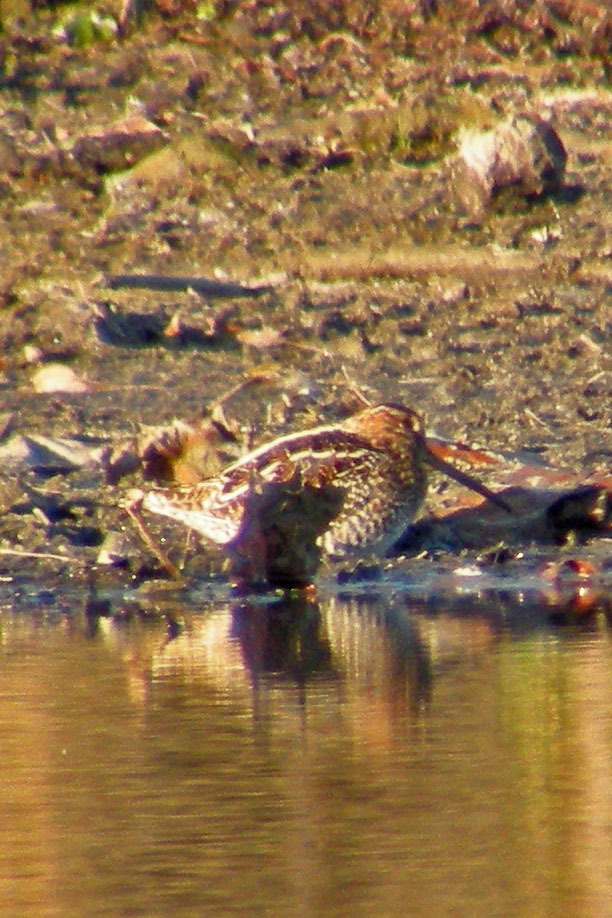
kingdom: Animalia
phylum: Chordata
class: Aves
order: Charadriiformes
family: Scolopacidae
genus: Gallinago
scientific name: Gallinago delicata
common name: Wilson's snipe
